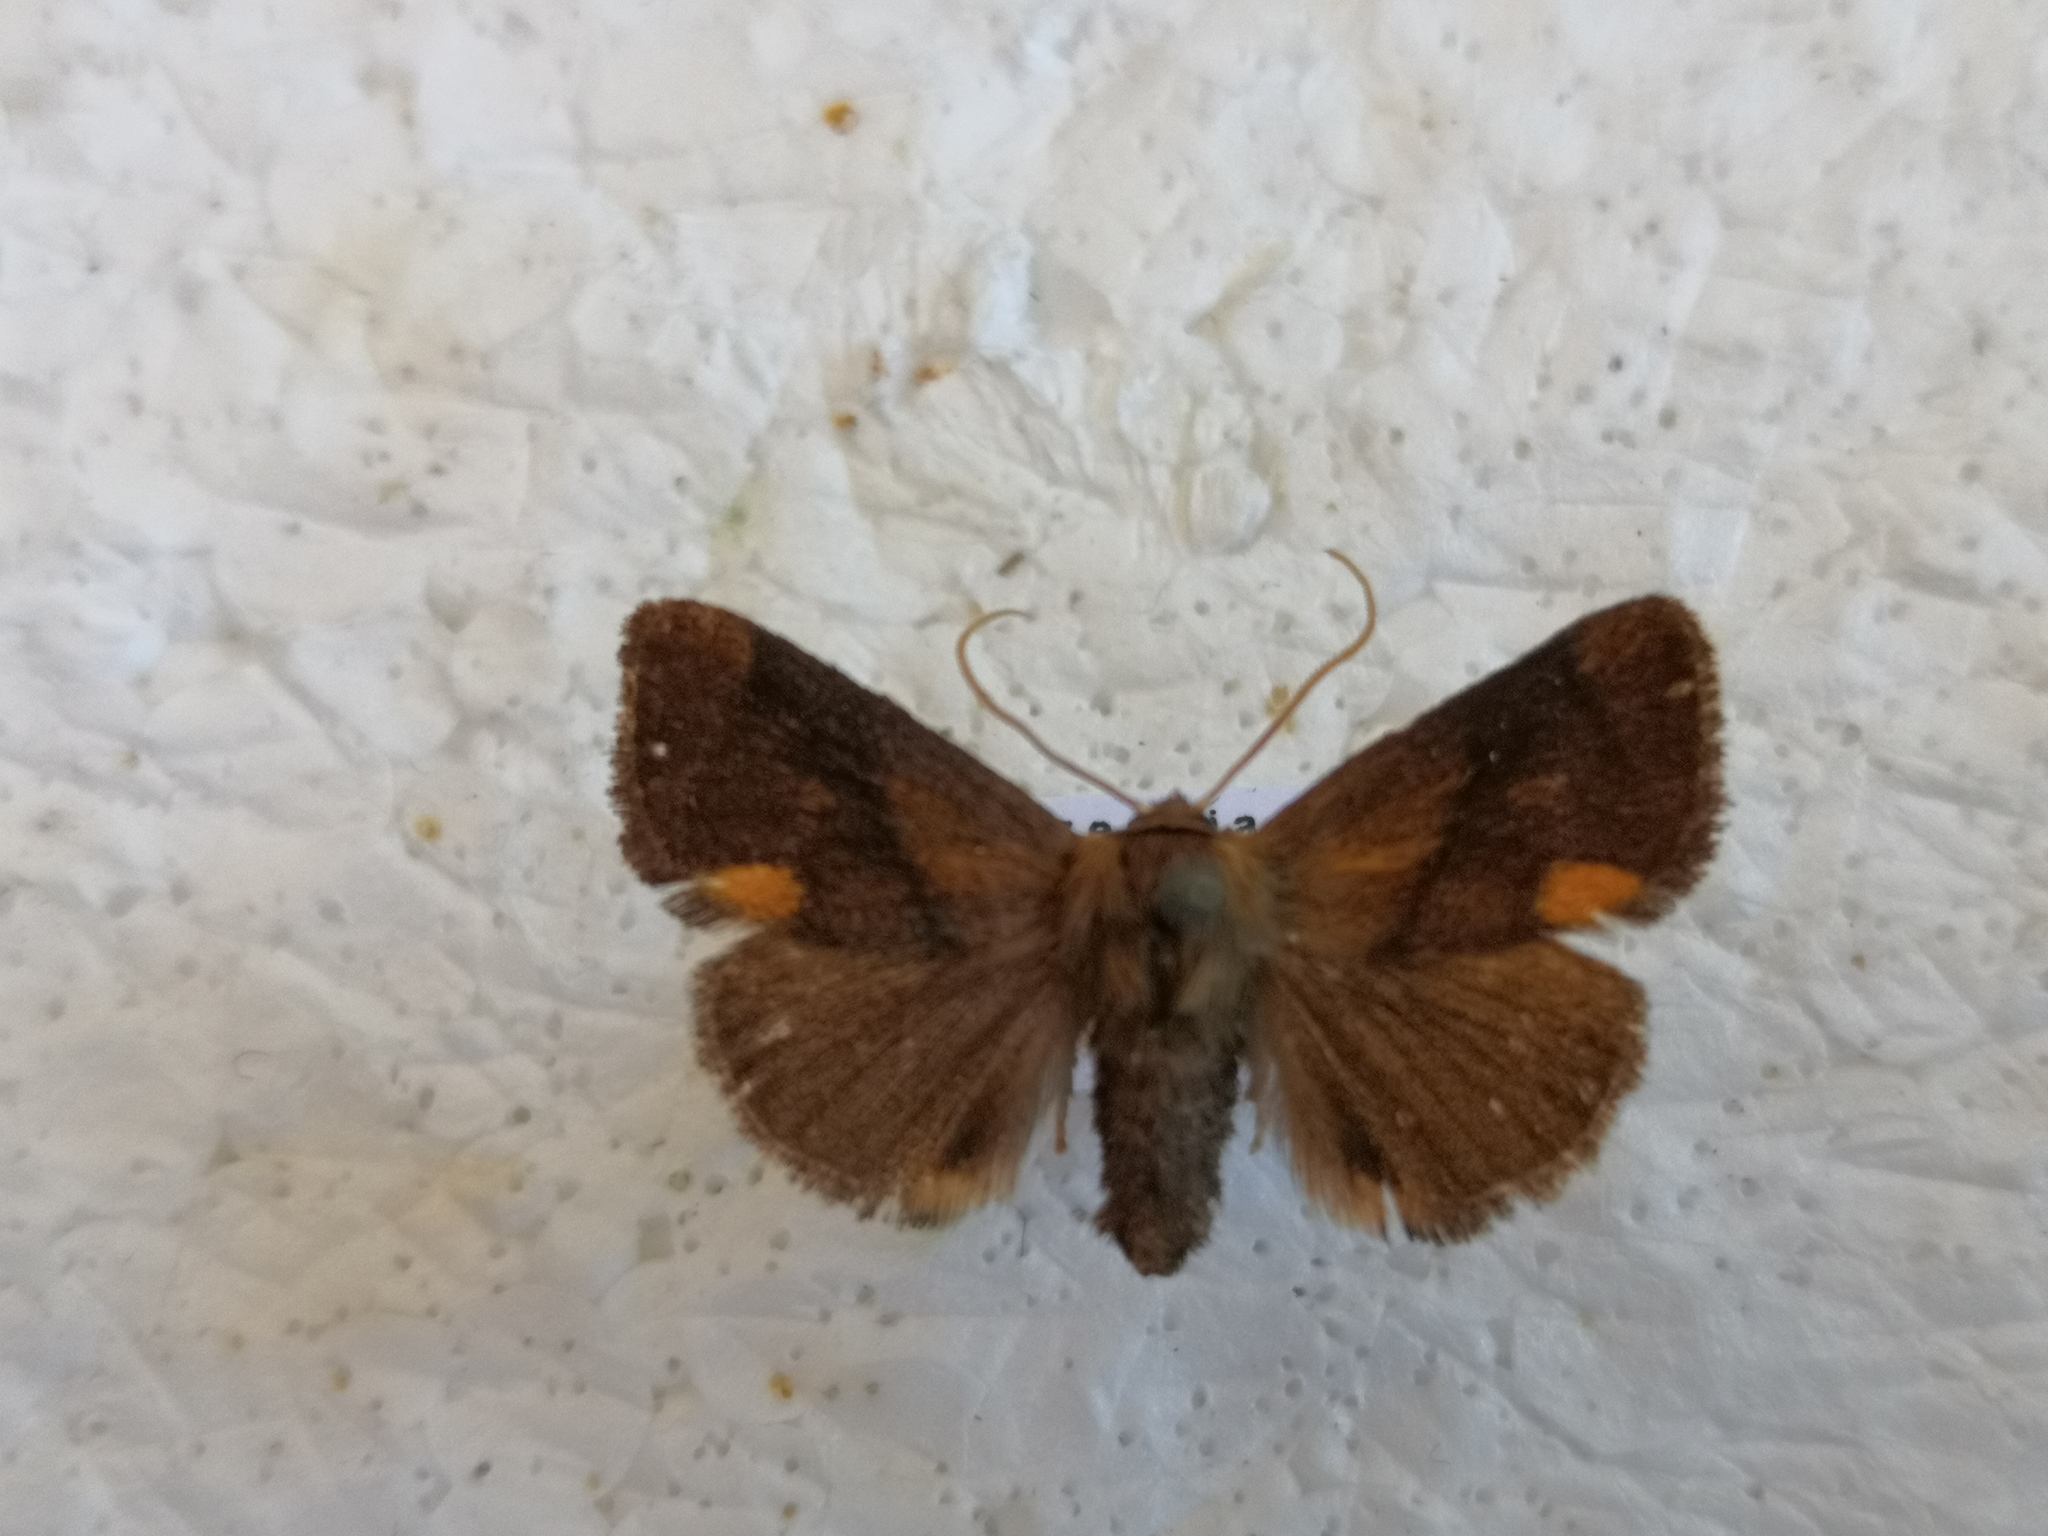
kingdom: Animalia
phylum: Arthropoda
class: Insecta
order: Lepidoptera
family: Limacodidae
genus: Apoda
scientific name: Apoda limacodes
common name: Festoon
